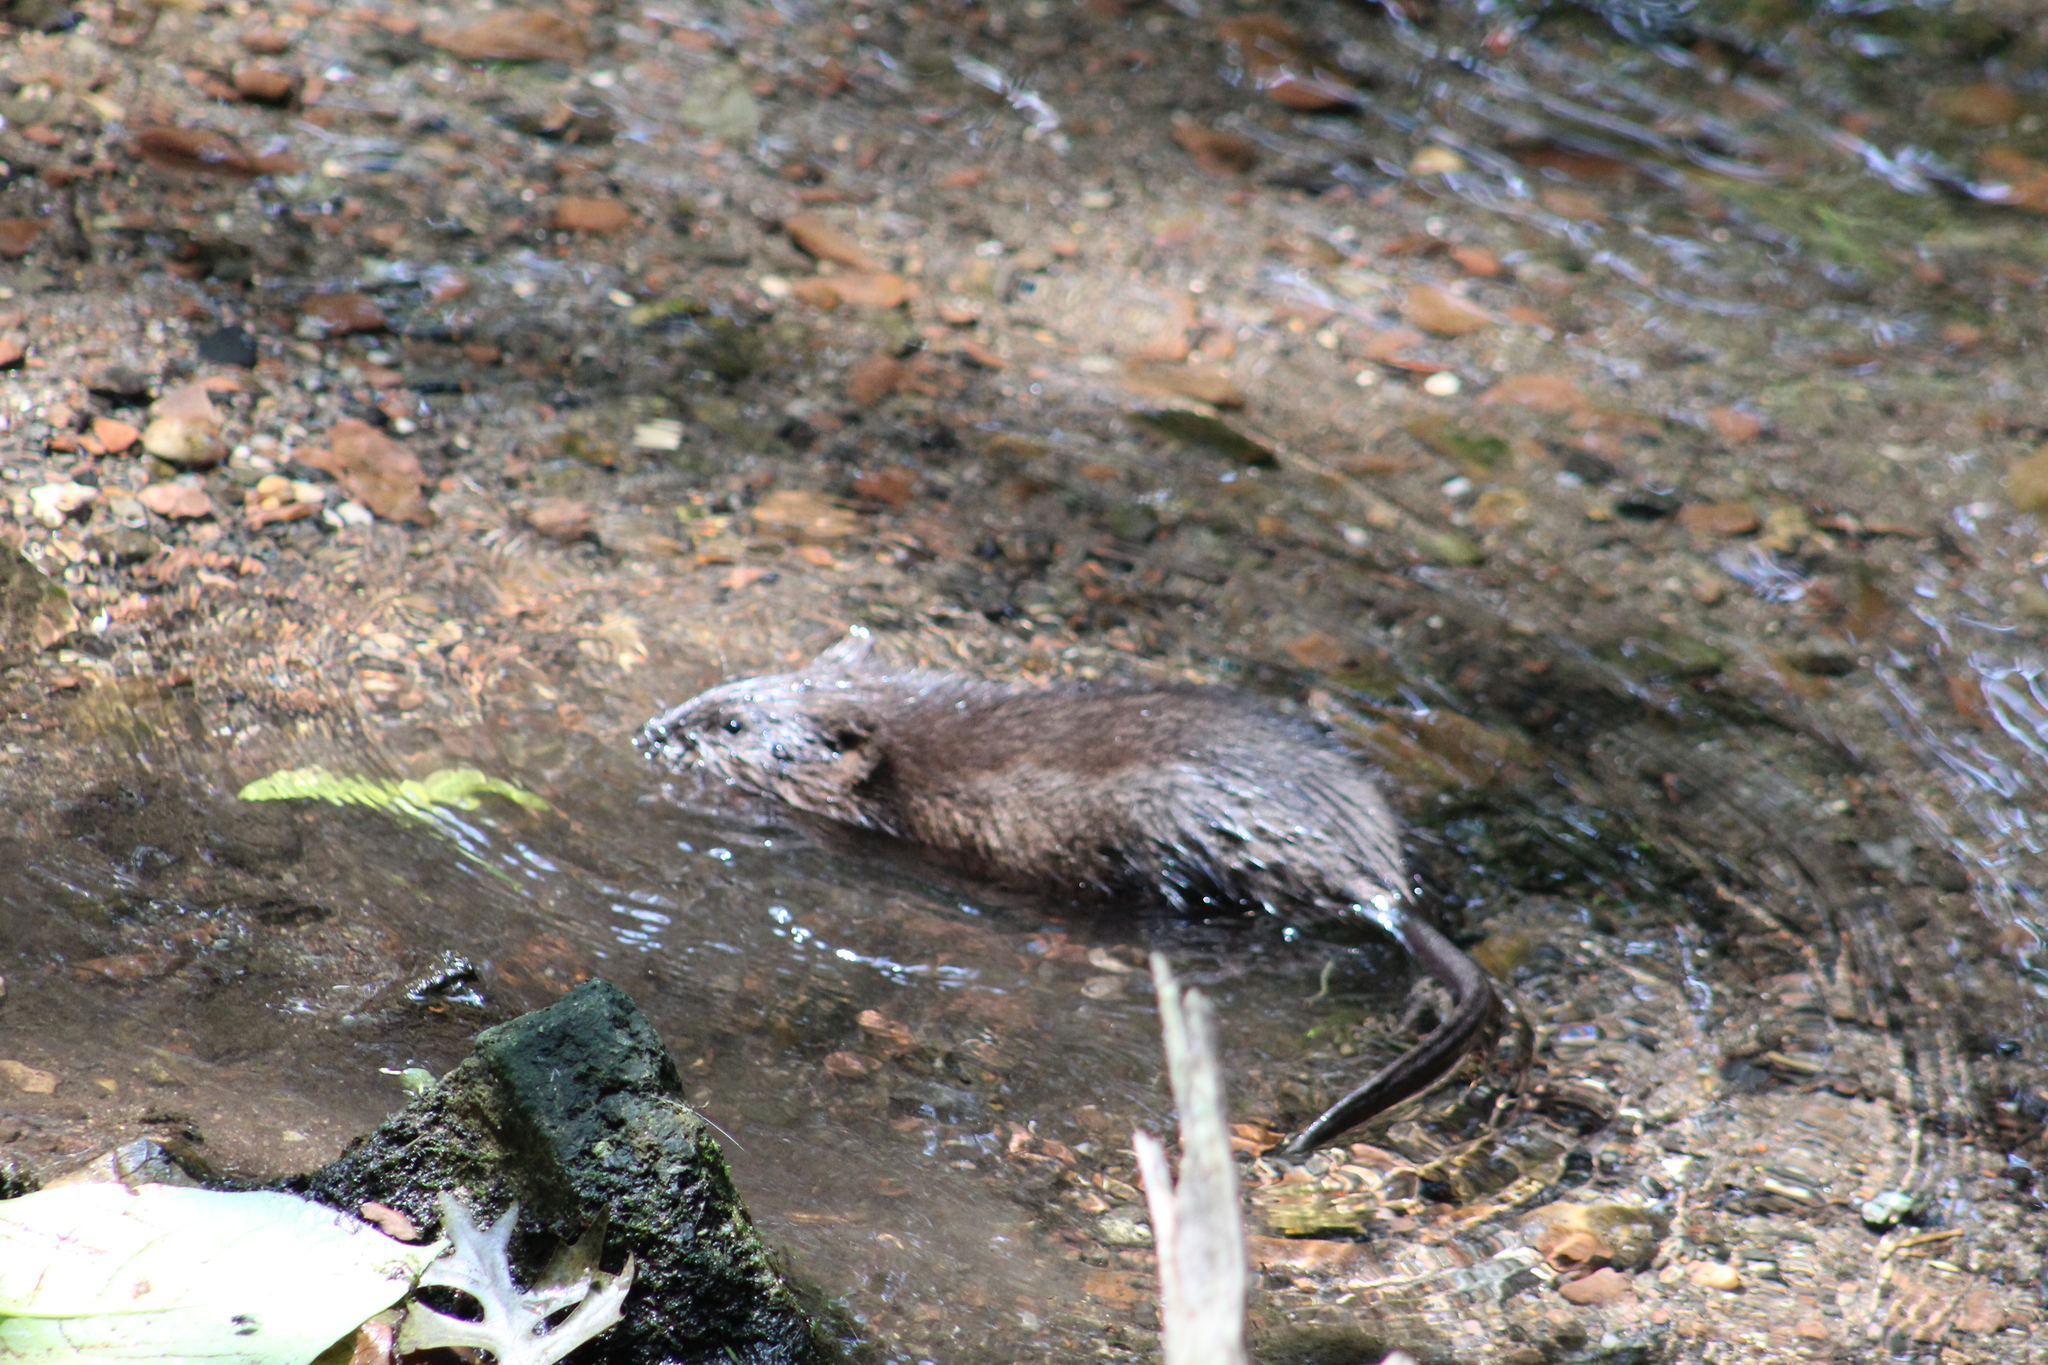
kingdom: Animalia
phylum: Chordata
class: Mammalia
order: Rodentia
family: Cricetidae
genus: Ondatra
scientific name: Ondatra zibethicus
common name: Muskrat
